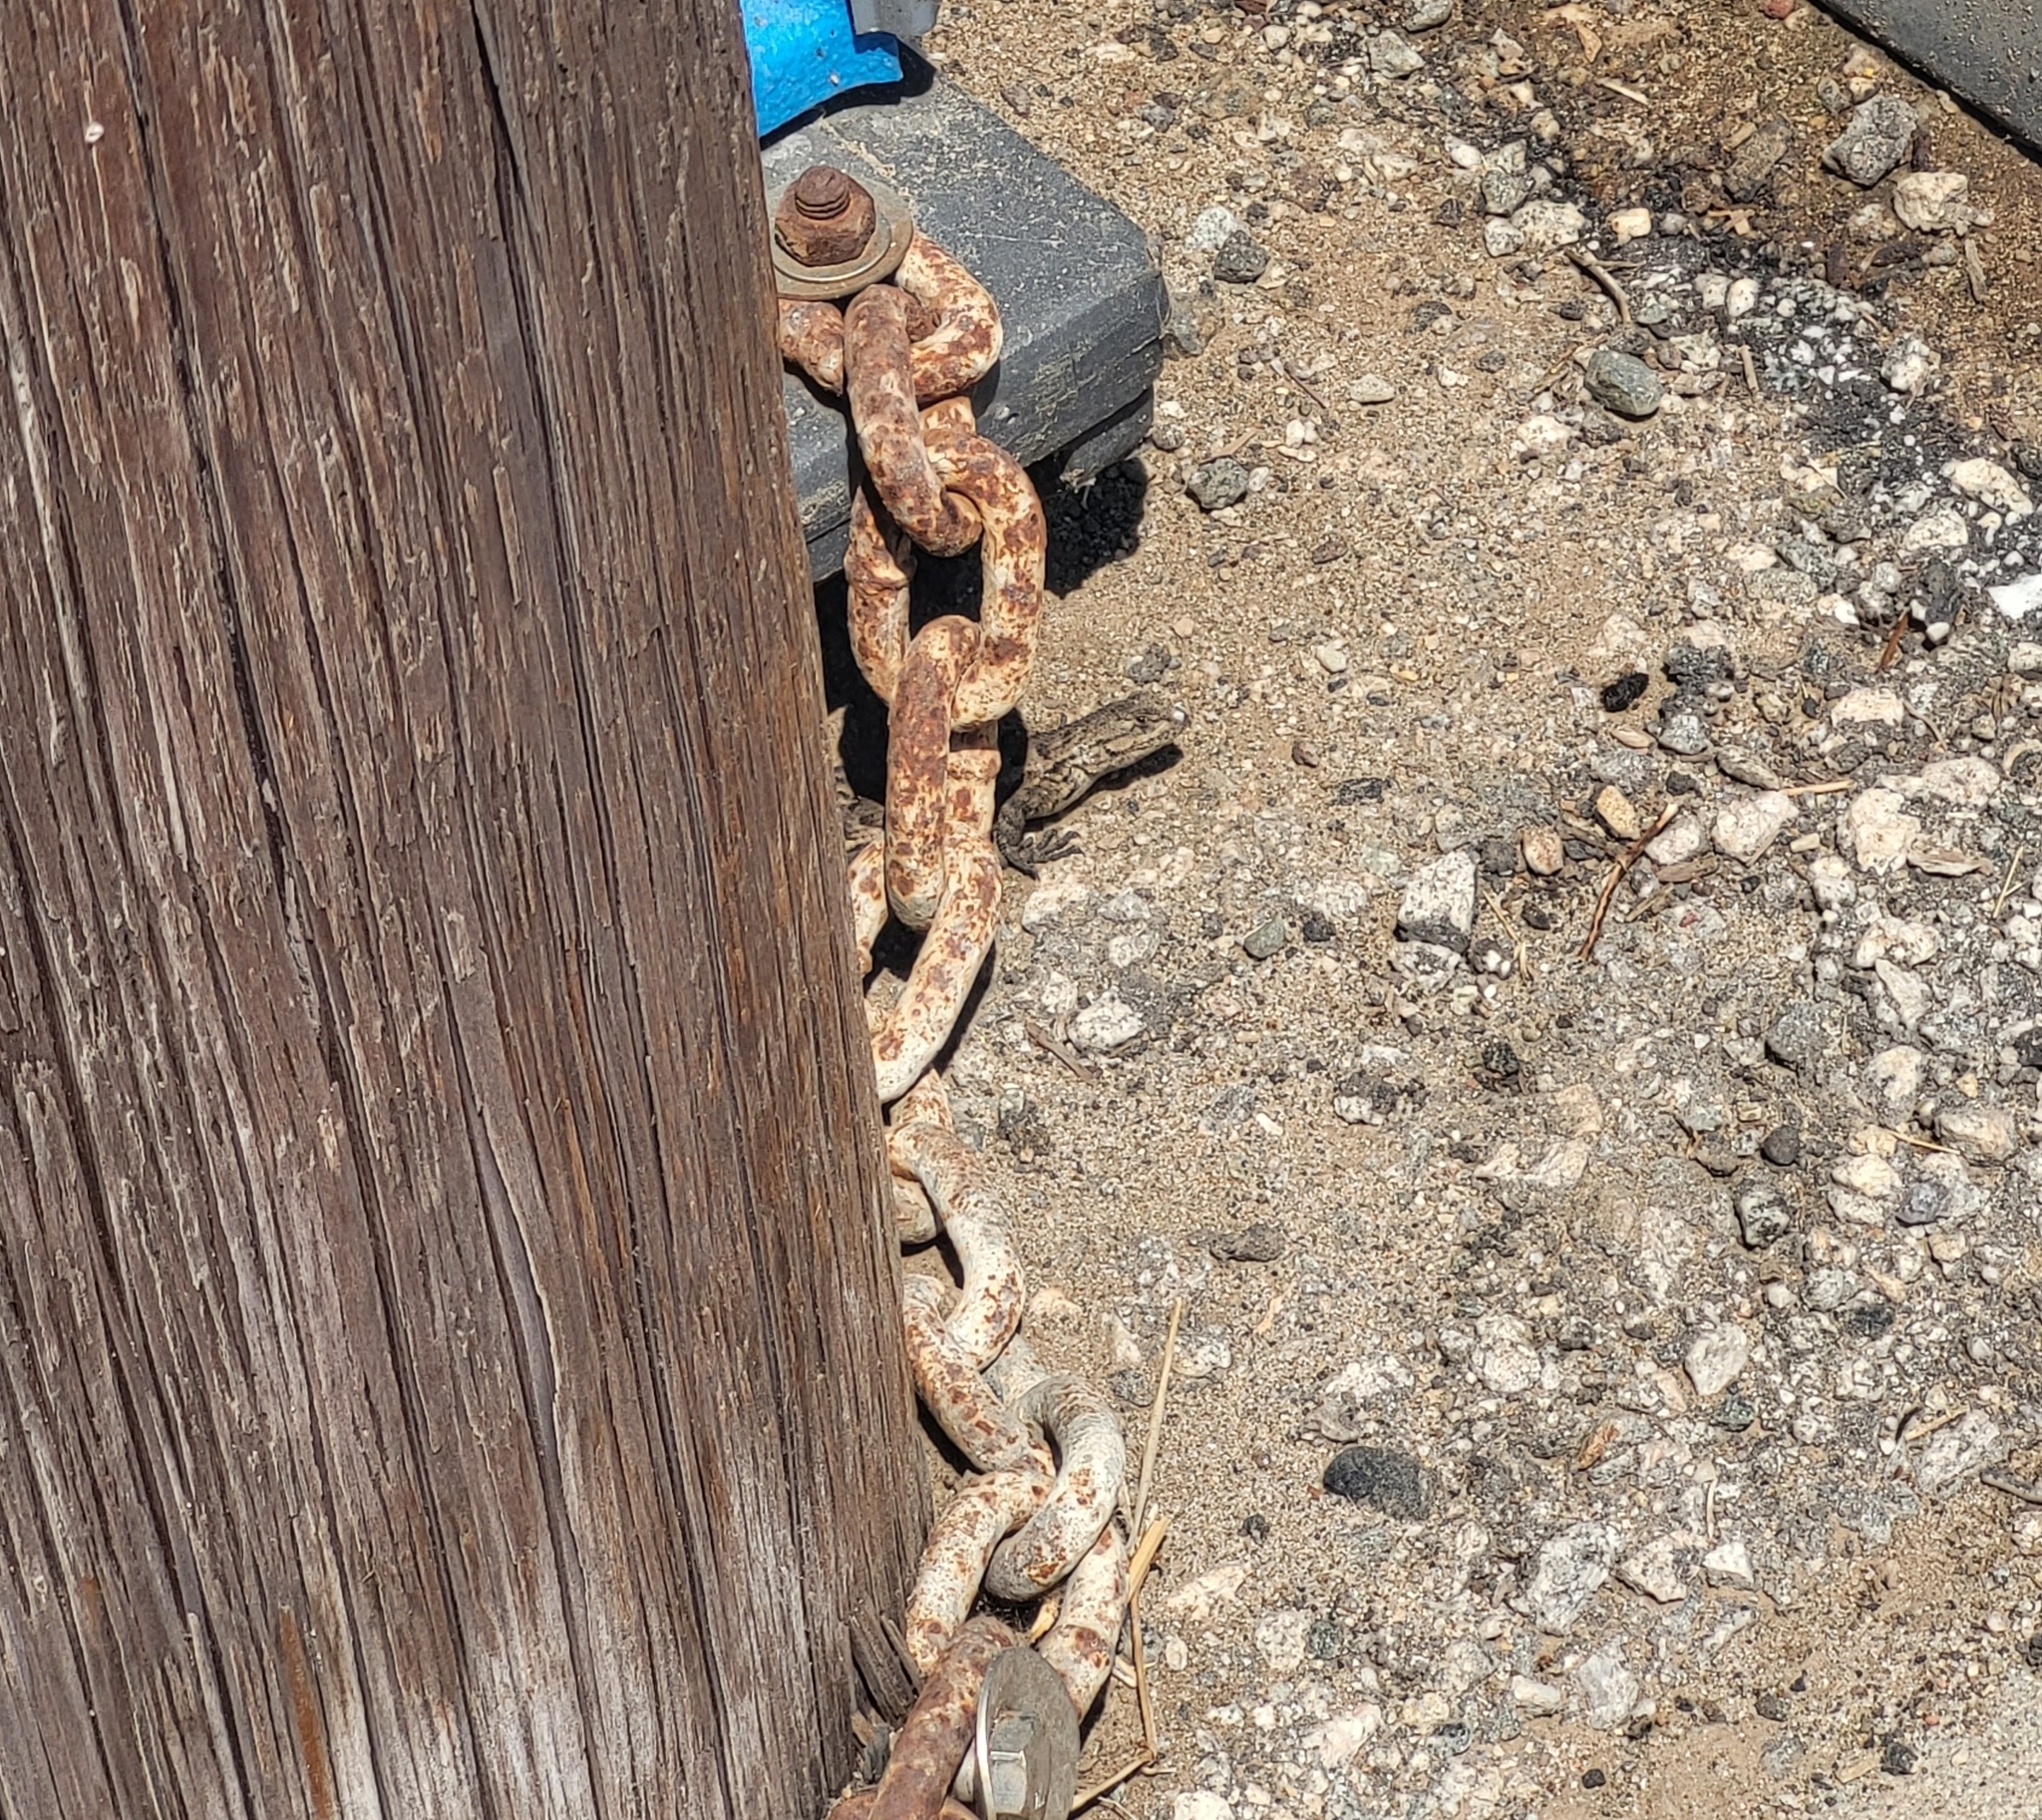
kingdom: Animalia
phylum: Chordata
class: Squamata
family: Phrynosomatidae
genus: Sceloporus
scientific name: Sceloporus occidentalis
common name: Western fence lizard
